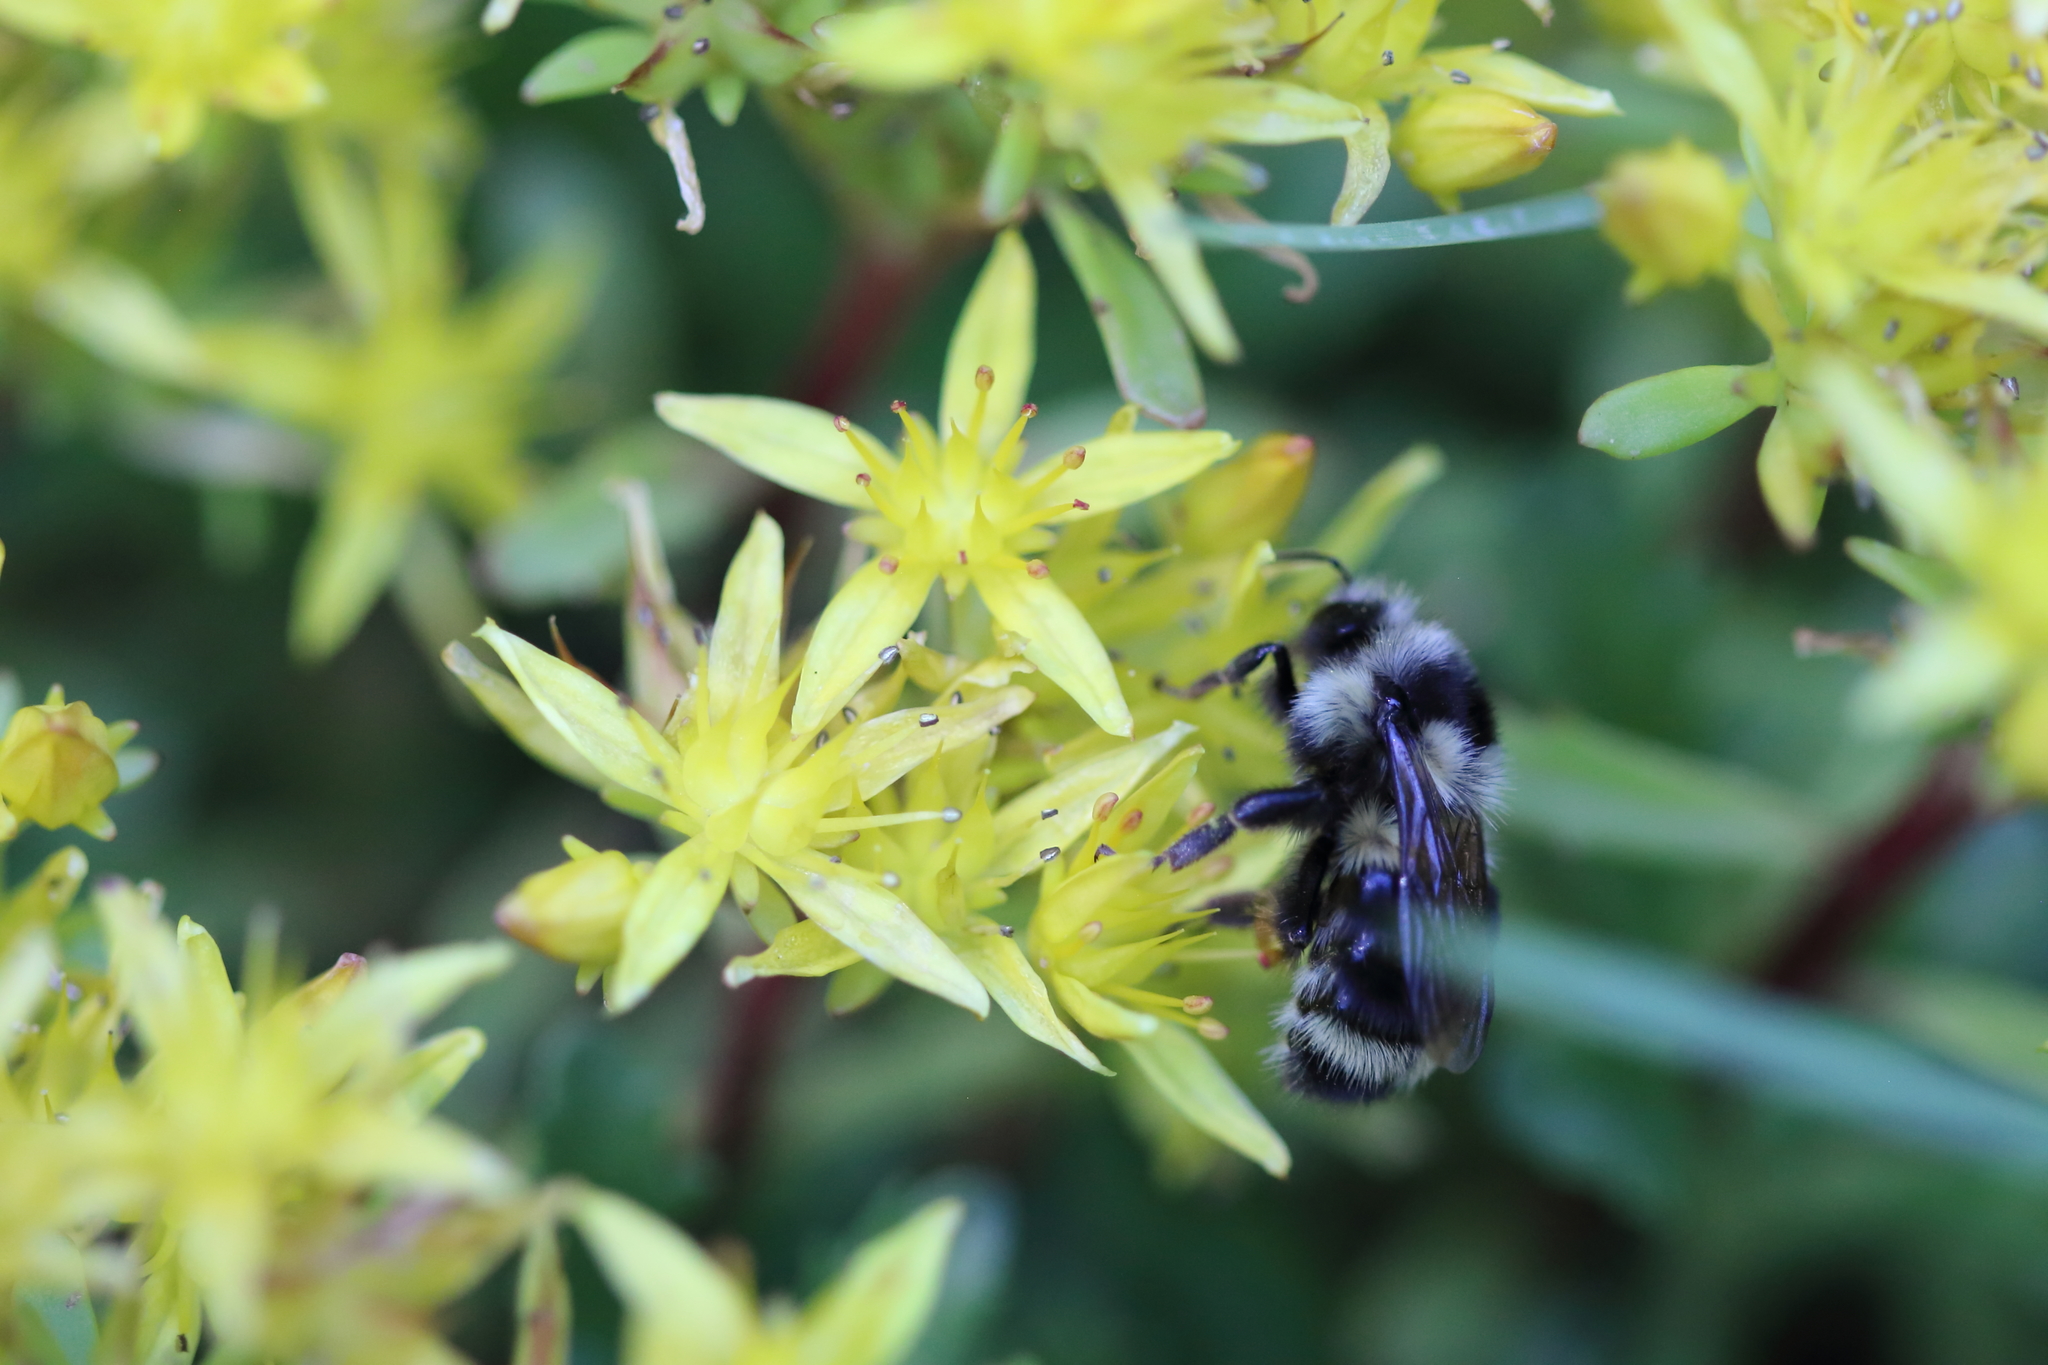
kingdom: Animalia
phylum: Arthropoda
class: Insecta
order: Hymenoptera
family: Apidae
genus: Bombus
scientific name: Bombus vancouverensis
